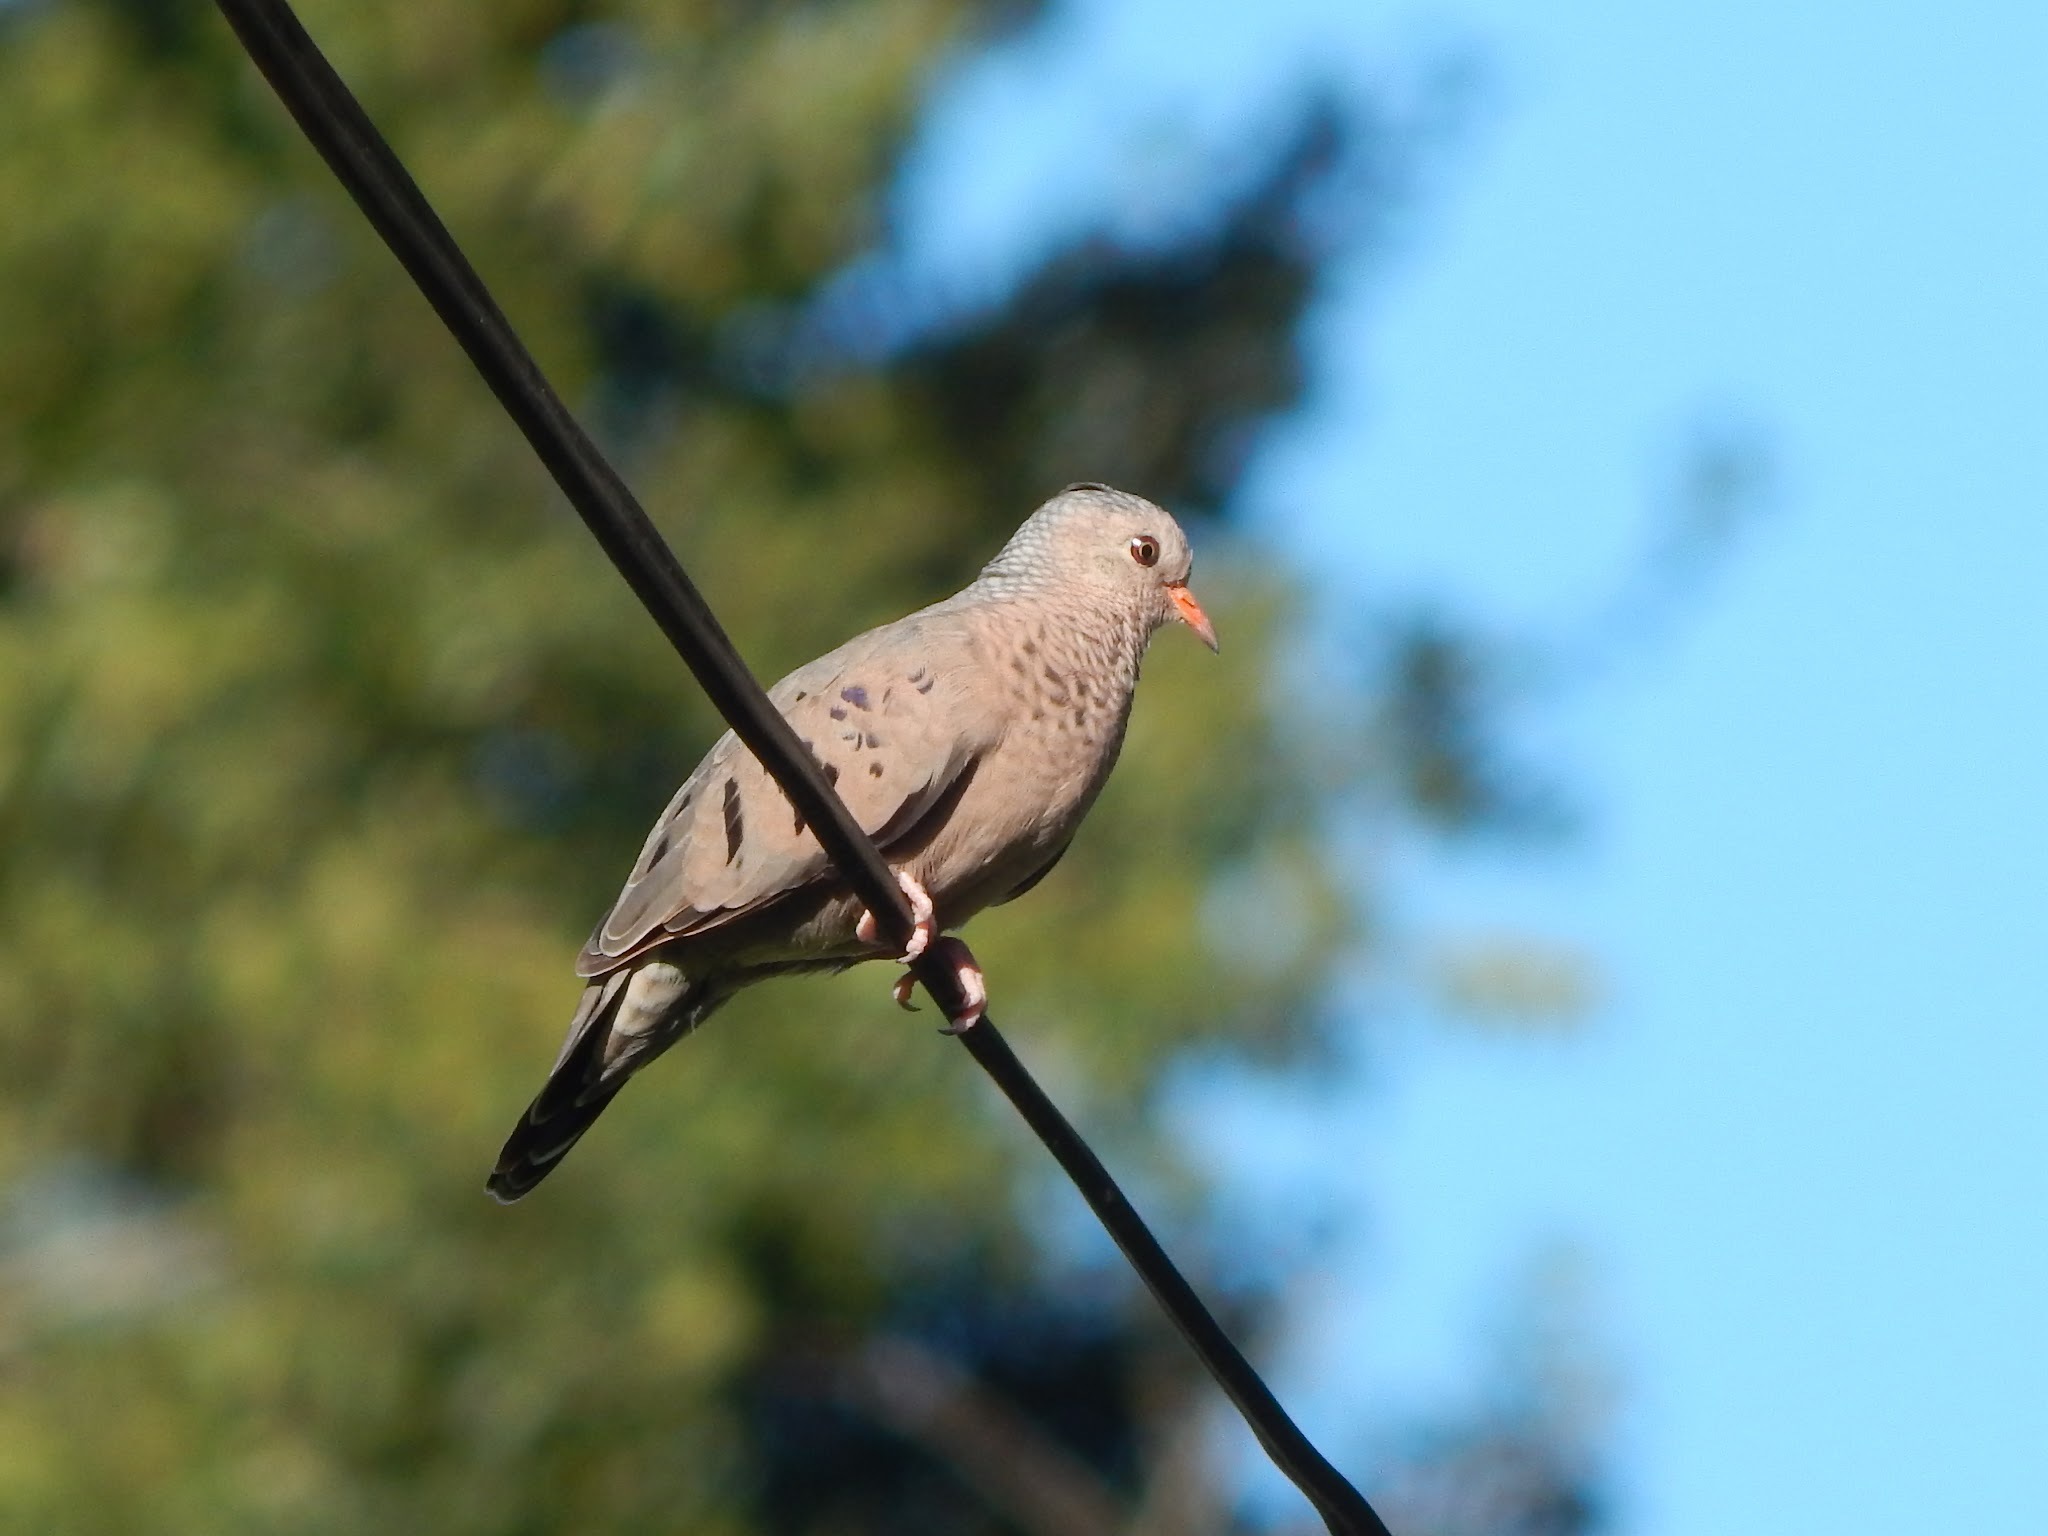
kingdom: Animalia
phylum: Chordata
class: Aves
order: Columbiformes
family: Columbidae
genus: Columbina
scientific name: Columbina passerina
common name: Common ground-dove
